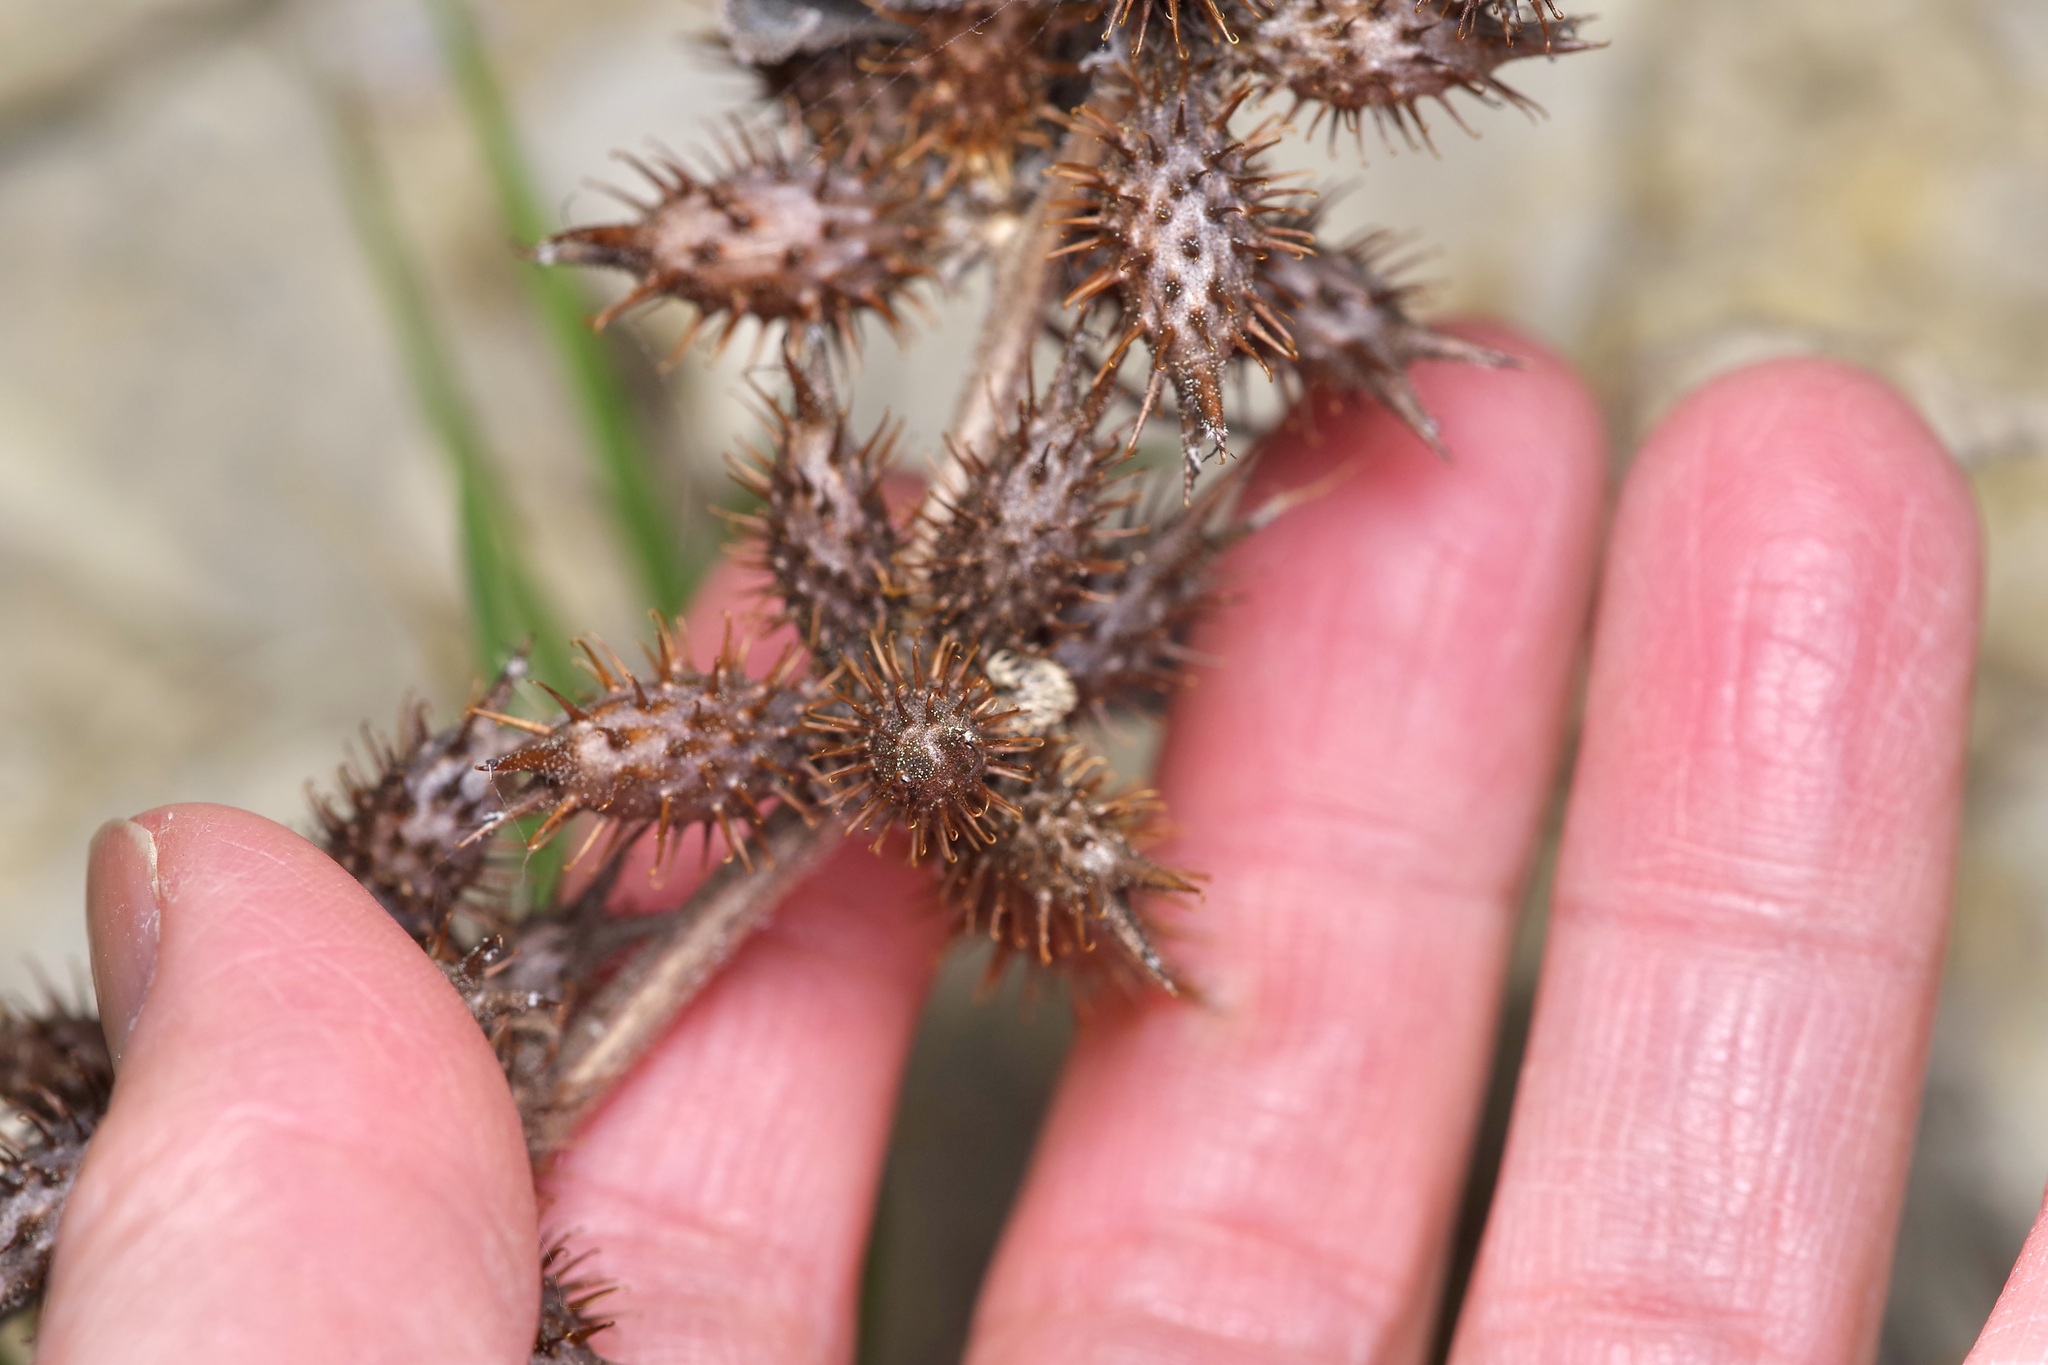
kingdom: Plantae
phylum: Tracheophyta
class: Magnoliopsida
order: Asterales
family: Asteraceae
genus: Xanthium
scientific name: Xanthium strumarium
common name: Rough cocklebur
